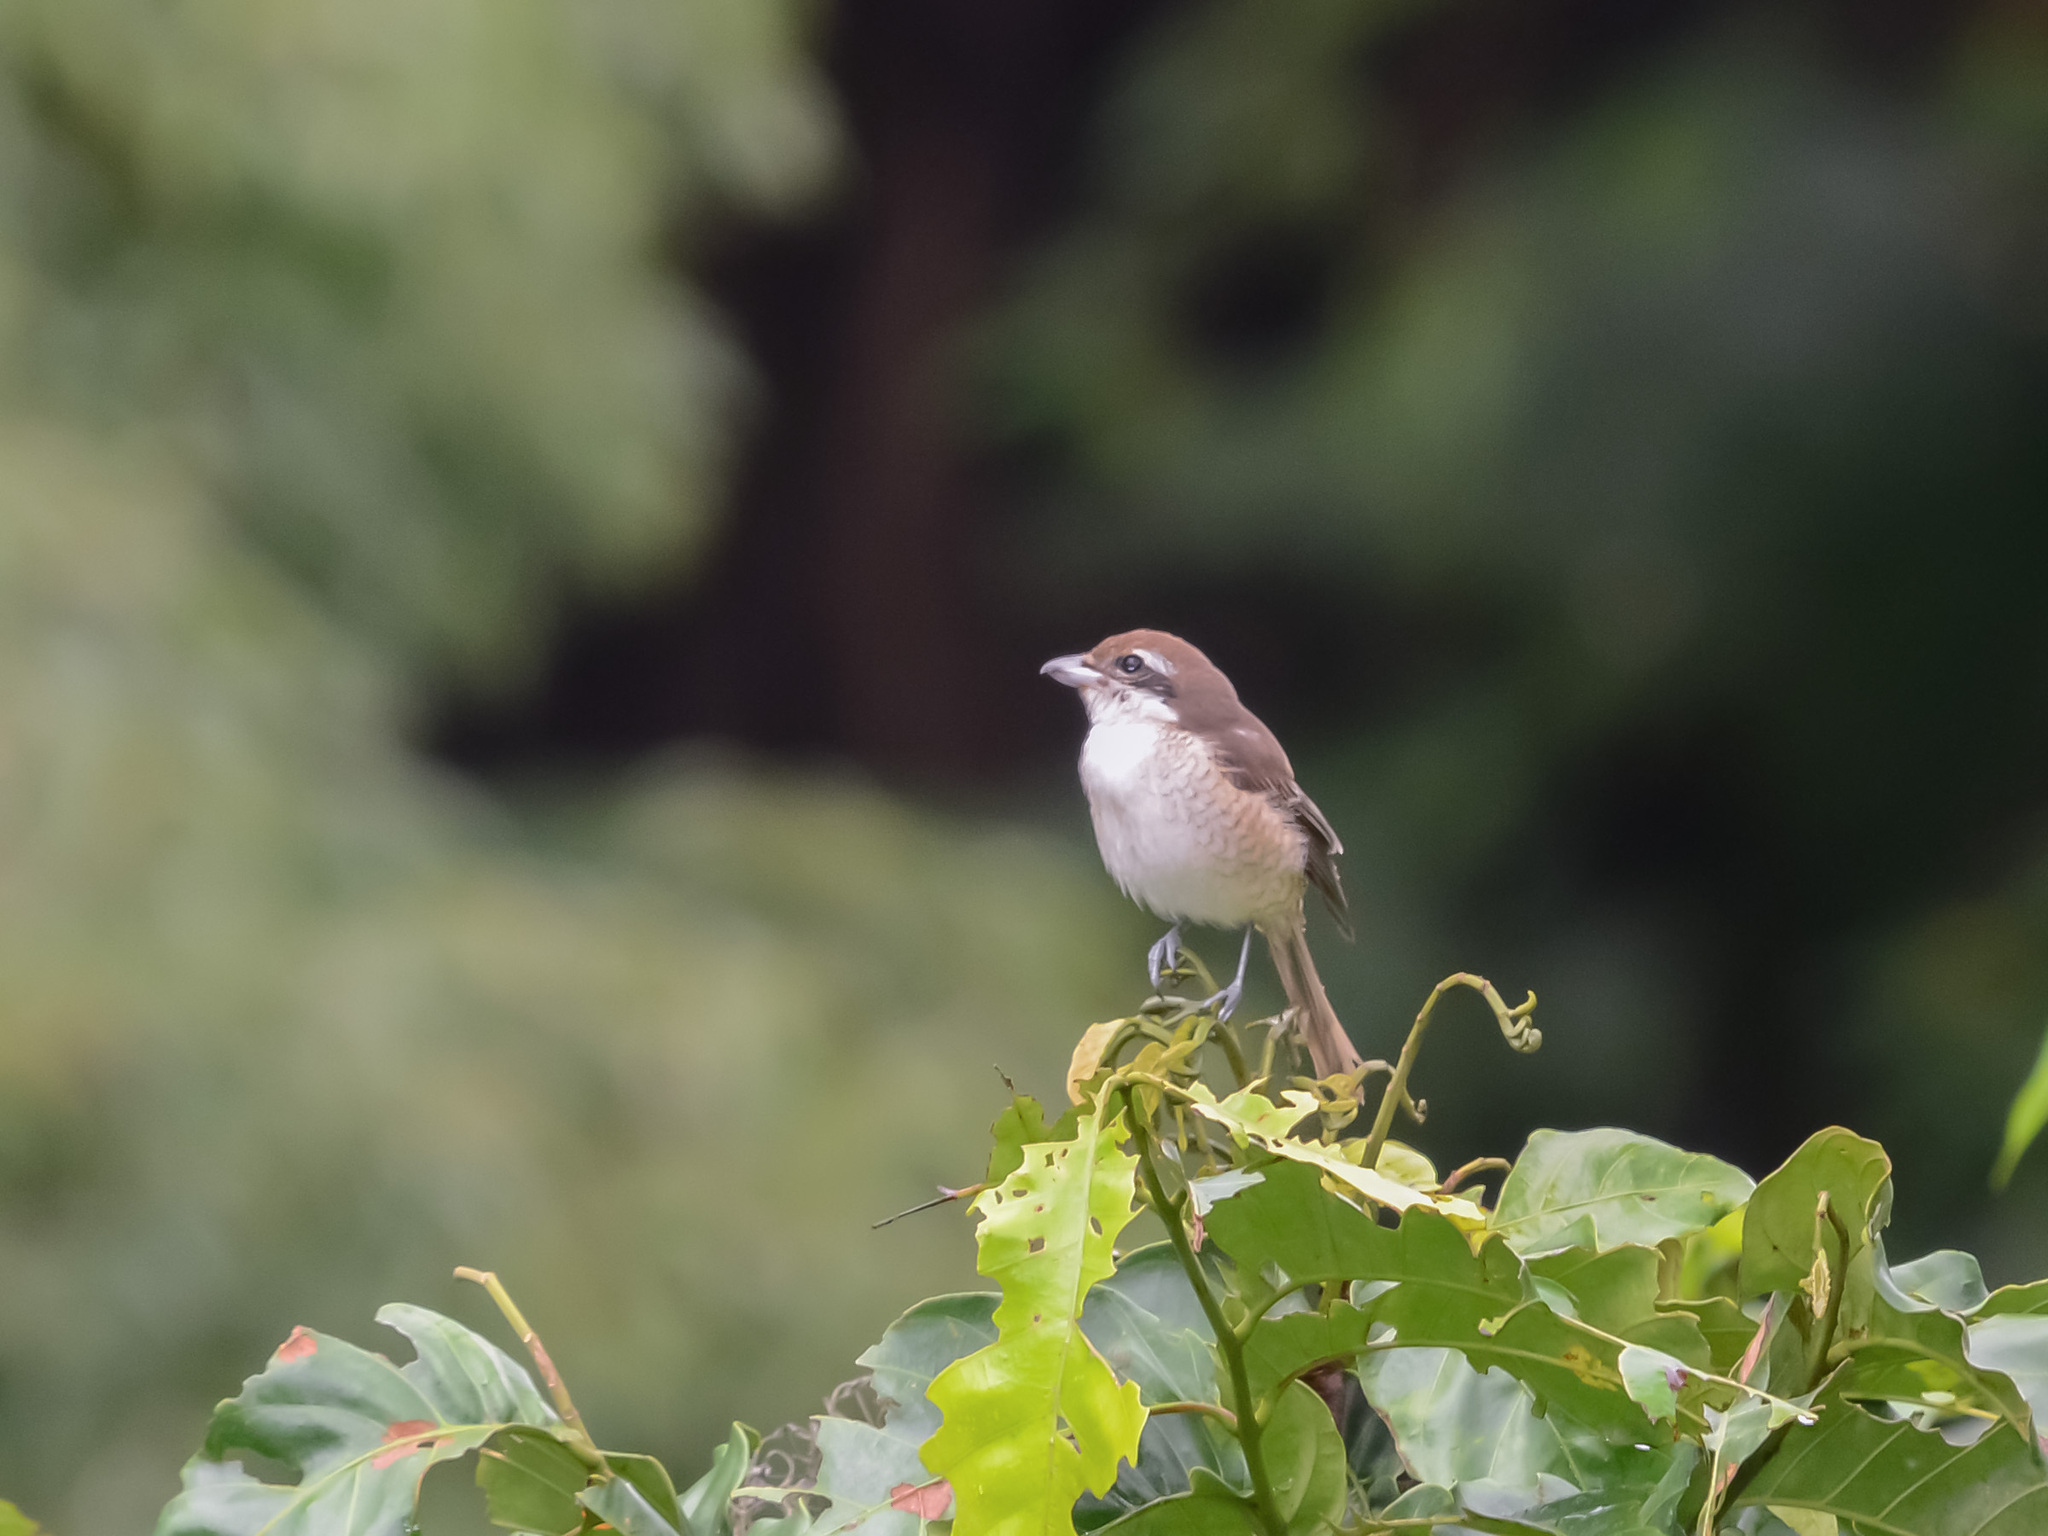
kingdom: Animalia
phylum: Chordata
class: Aves
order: Passeriformes
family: Laniidae
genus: Lanius
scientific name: Lanius cristatus
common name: Brown shrike
